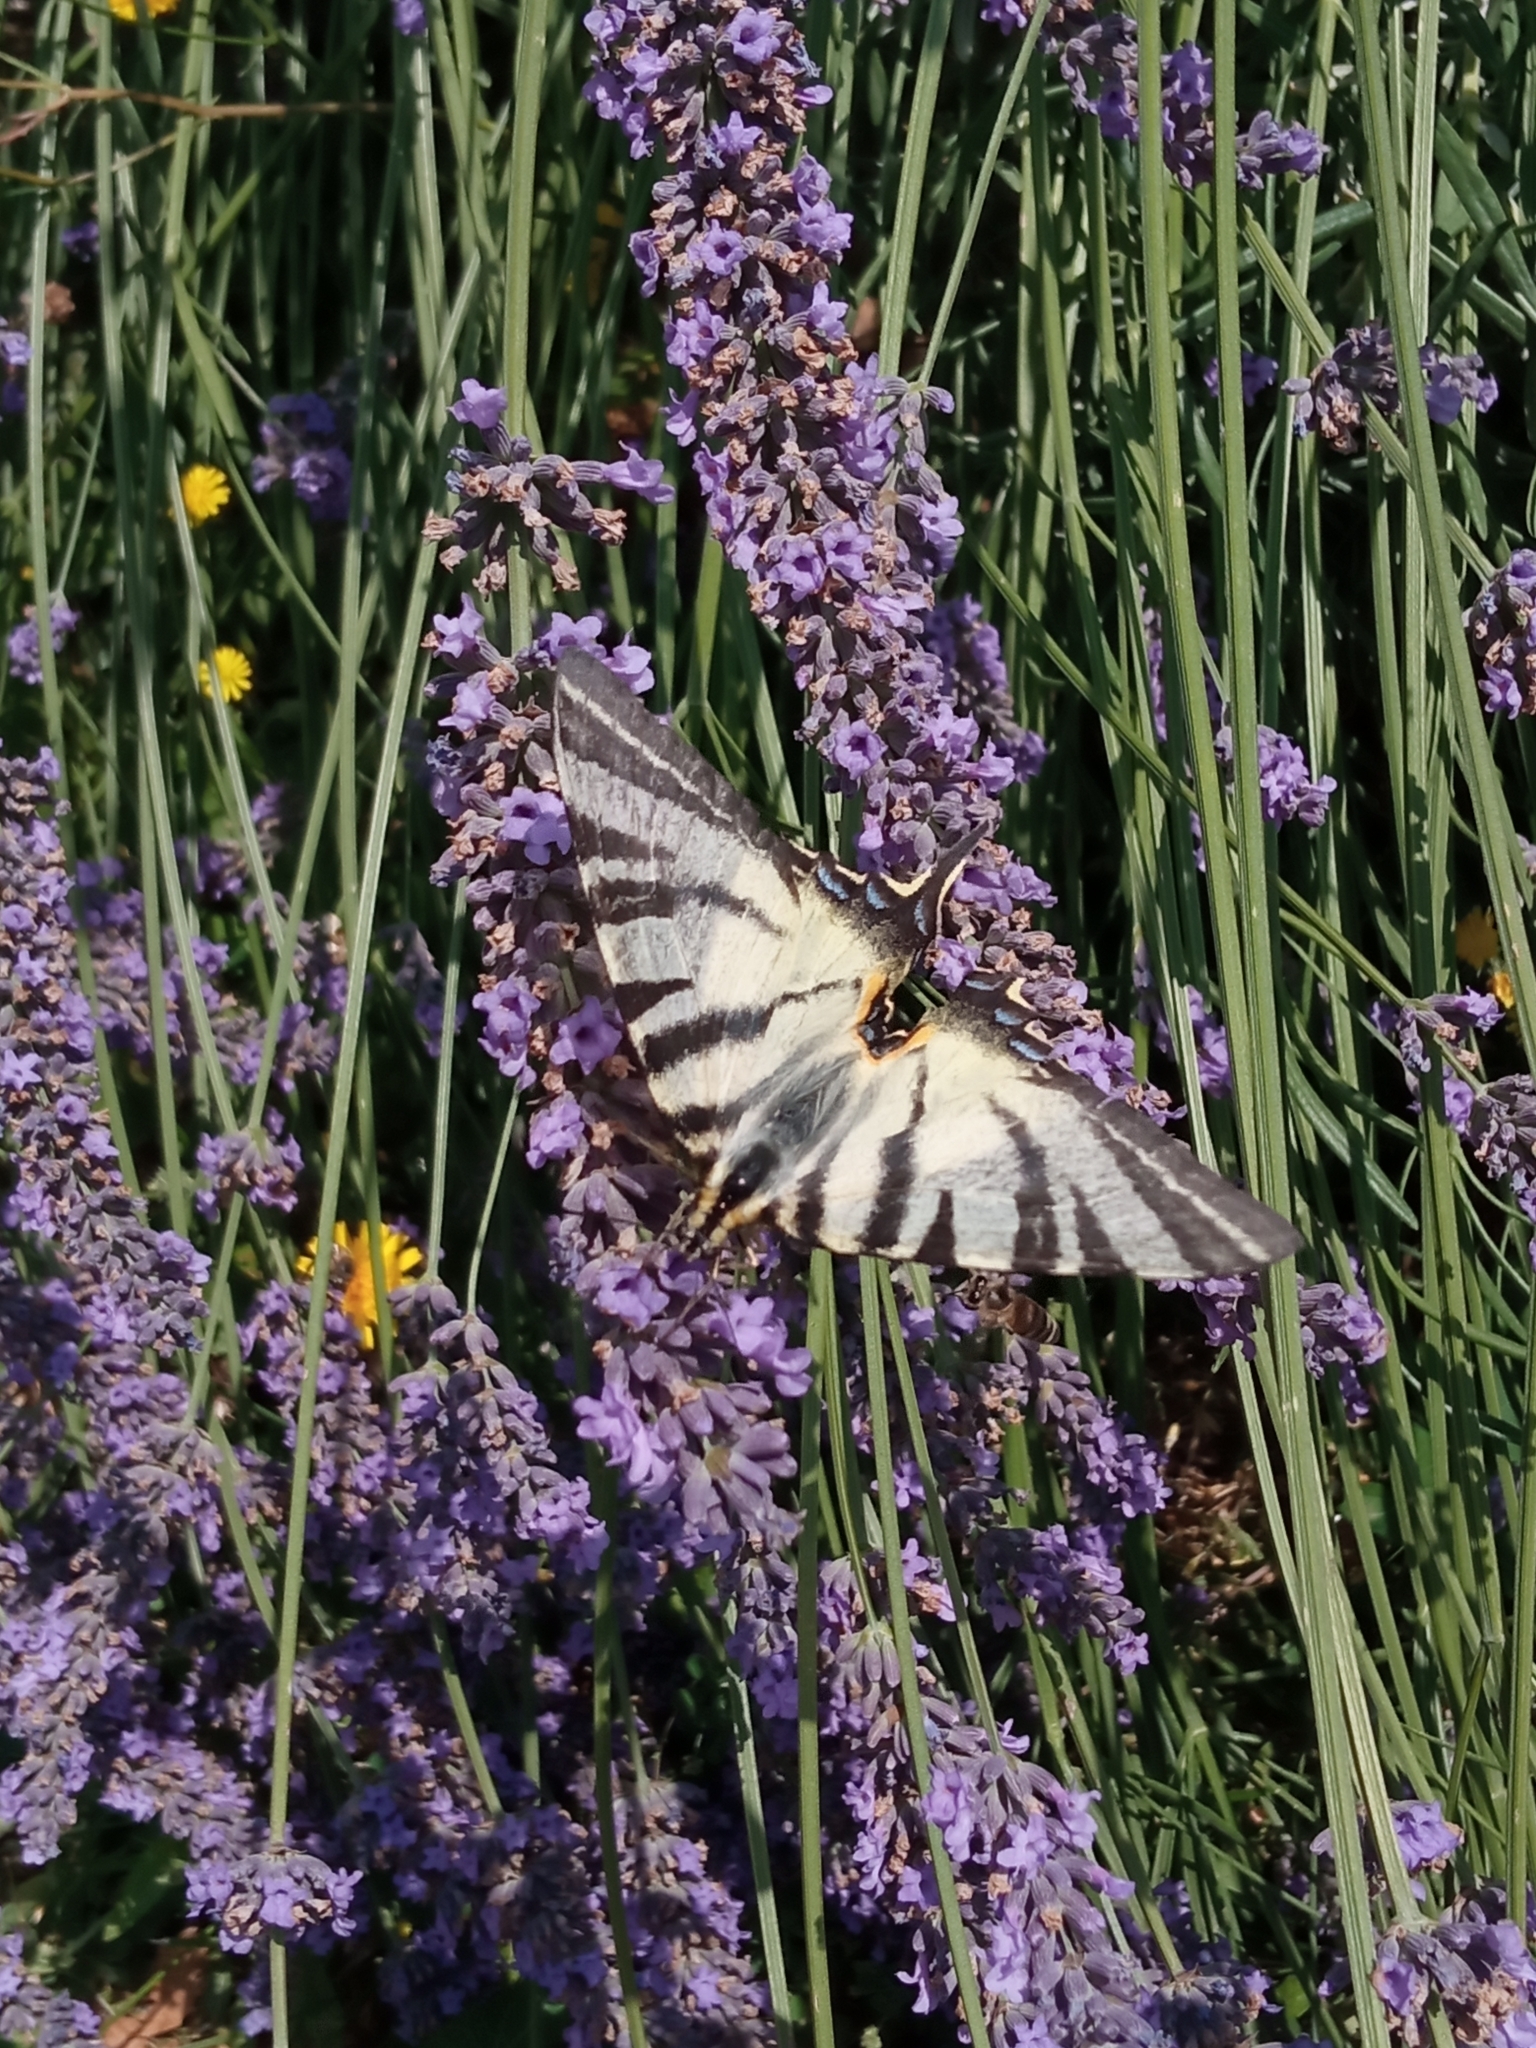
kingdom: Animalia
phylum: Arthropoda
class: Insecta
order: Lepidoptera
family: Papilionidae
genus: Iphiclides
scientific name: Iphiclides podalirius
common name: Scarce swallowtail
